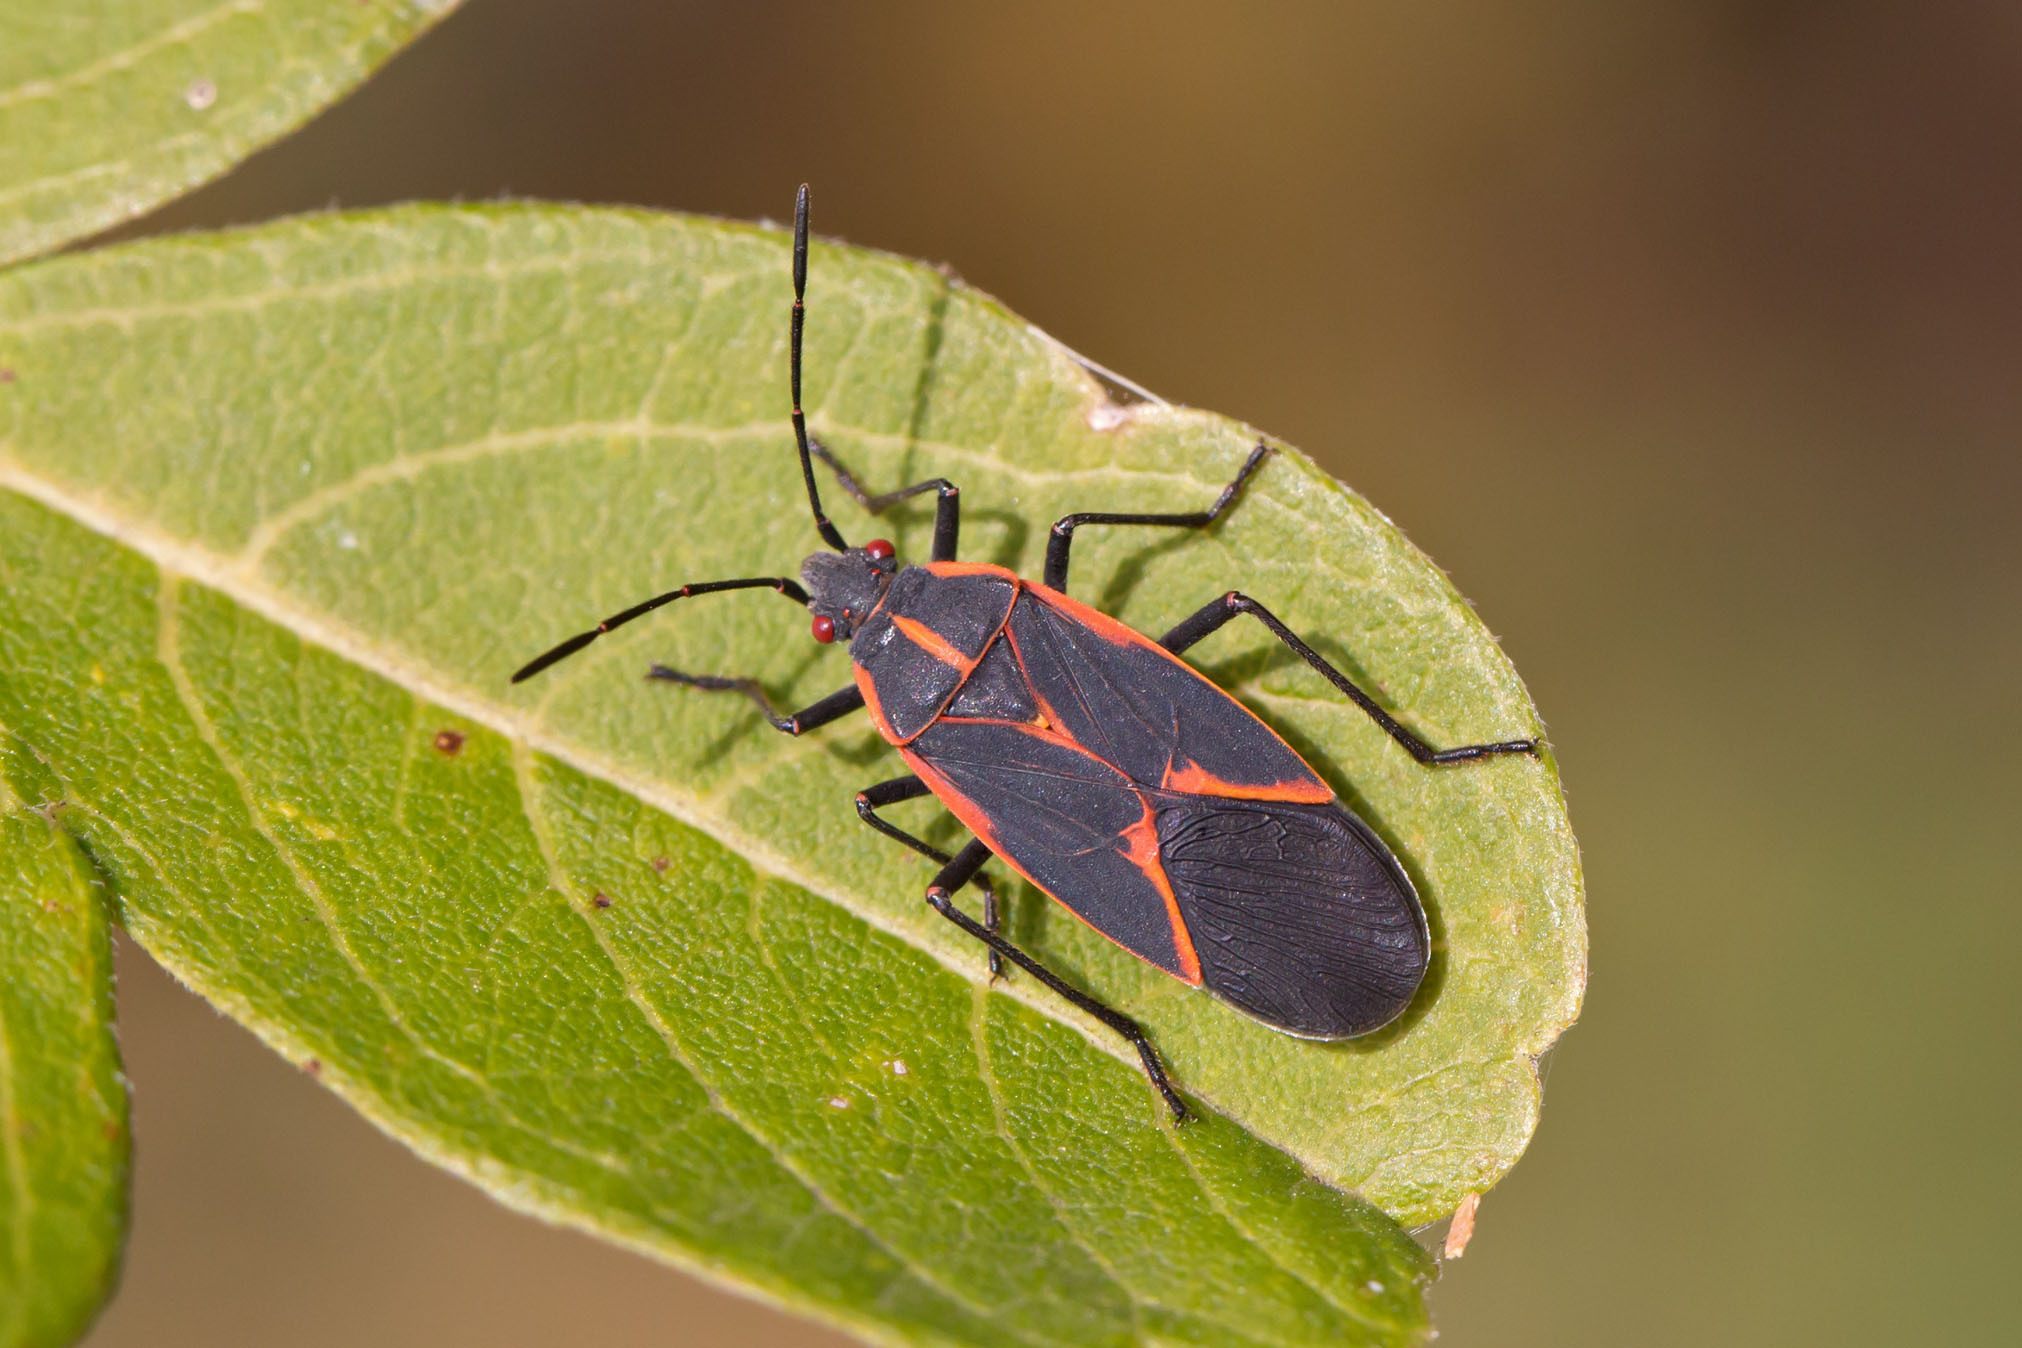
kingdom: Animalia
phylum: Arthropoda
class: Insecta
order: Hemiptera
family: Rhopalidae
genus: Boisea
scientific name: Boisea trivittata
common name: Boxelder bug
